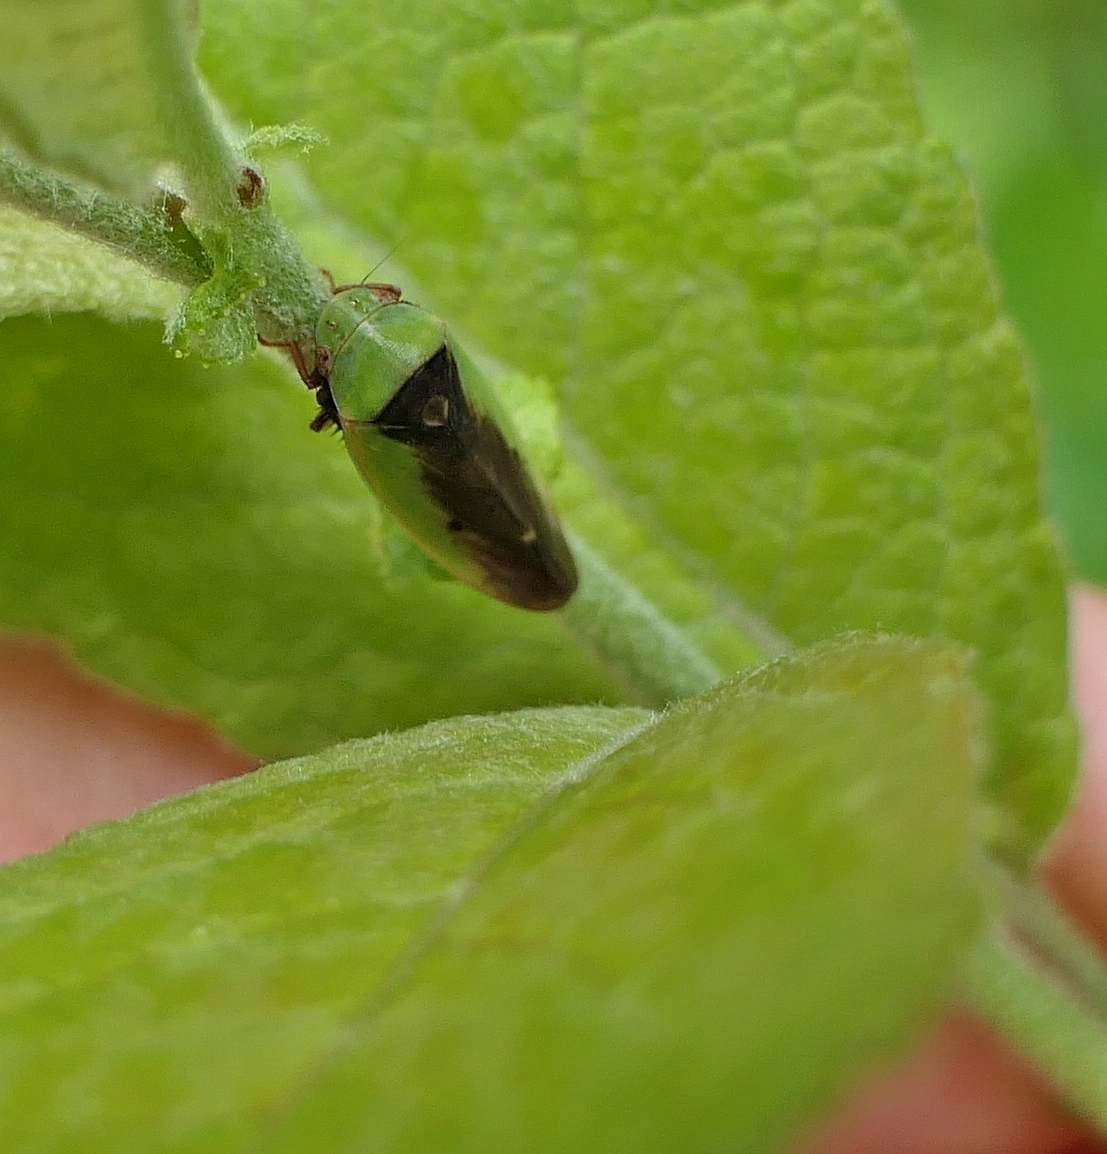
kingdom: Animalia
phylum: Arthropoda
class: Insecta
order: Hemiptera
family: Cicadellidae
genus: Ponana
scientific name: Ponana pectoralis
